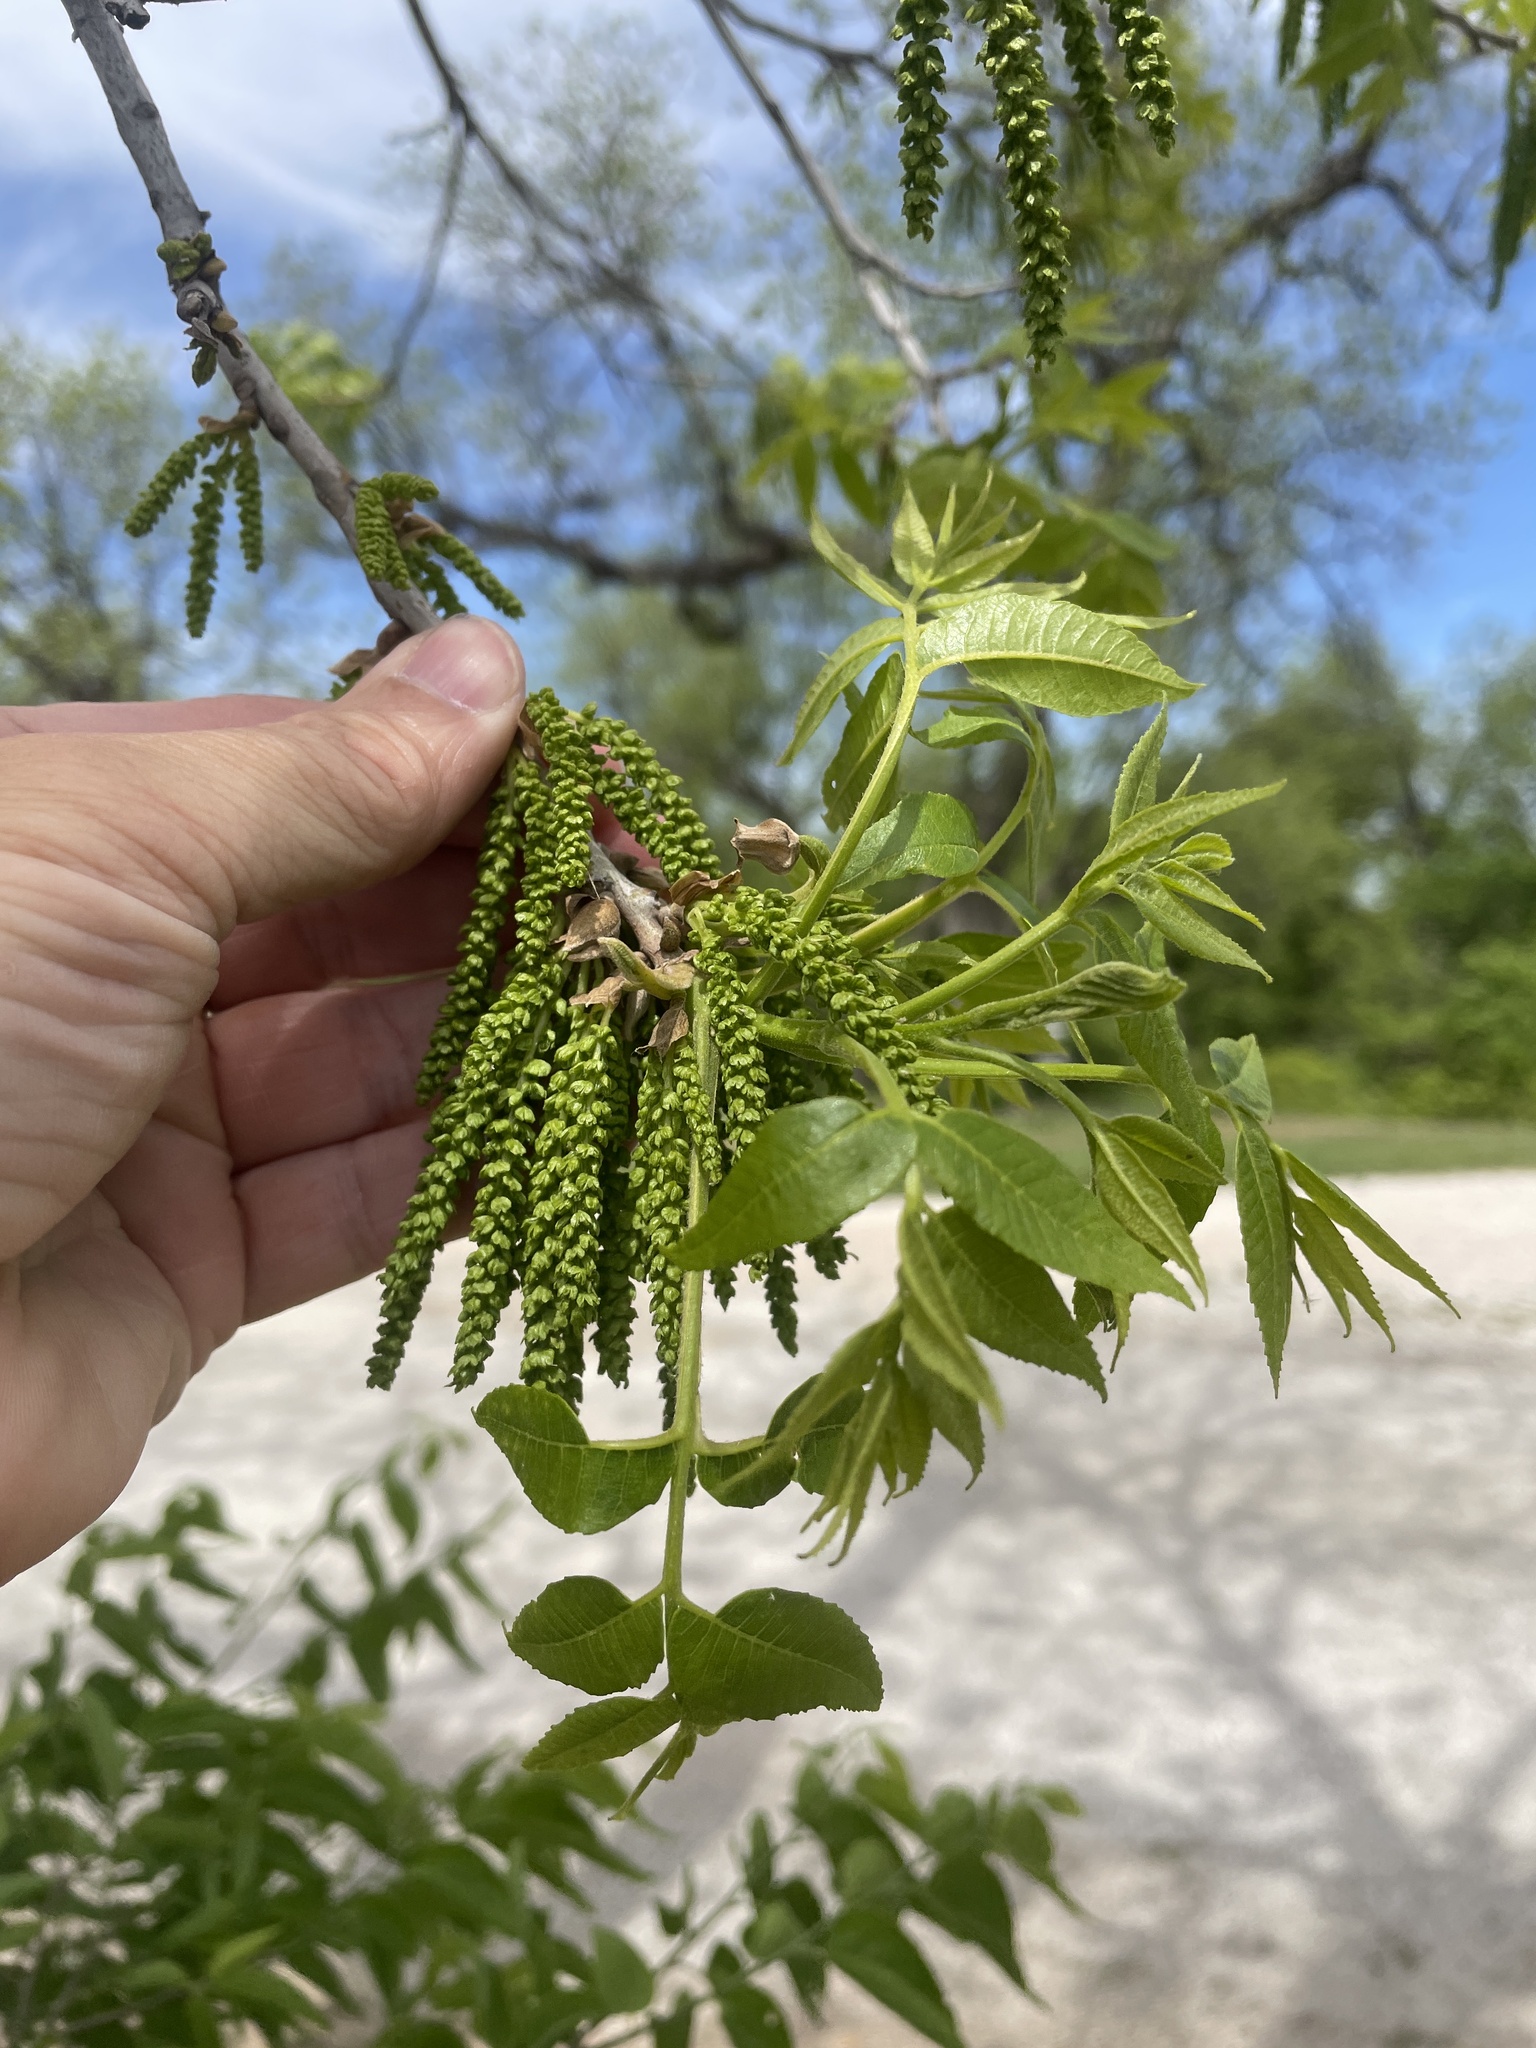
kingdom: Plantae
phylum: Tracheophyta
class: Magnoliopsida
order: Fagales
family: Juglandaceae
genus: Carya
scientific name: Carya illinoinensis
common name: Pecan
